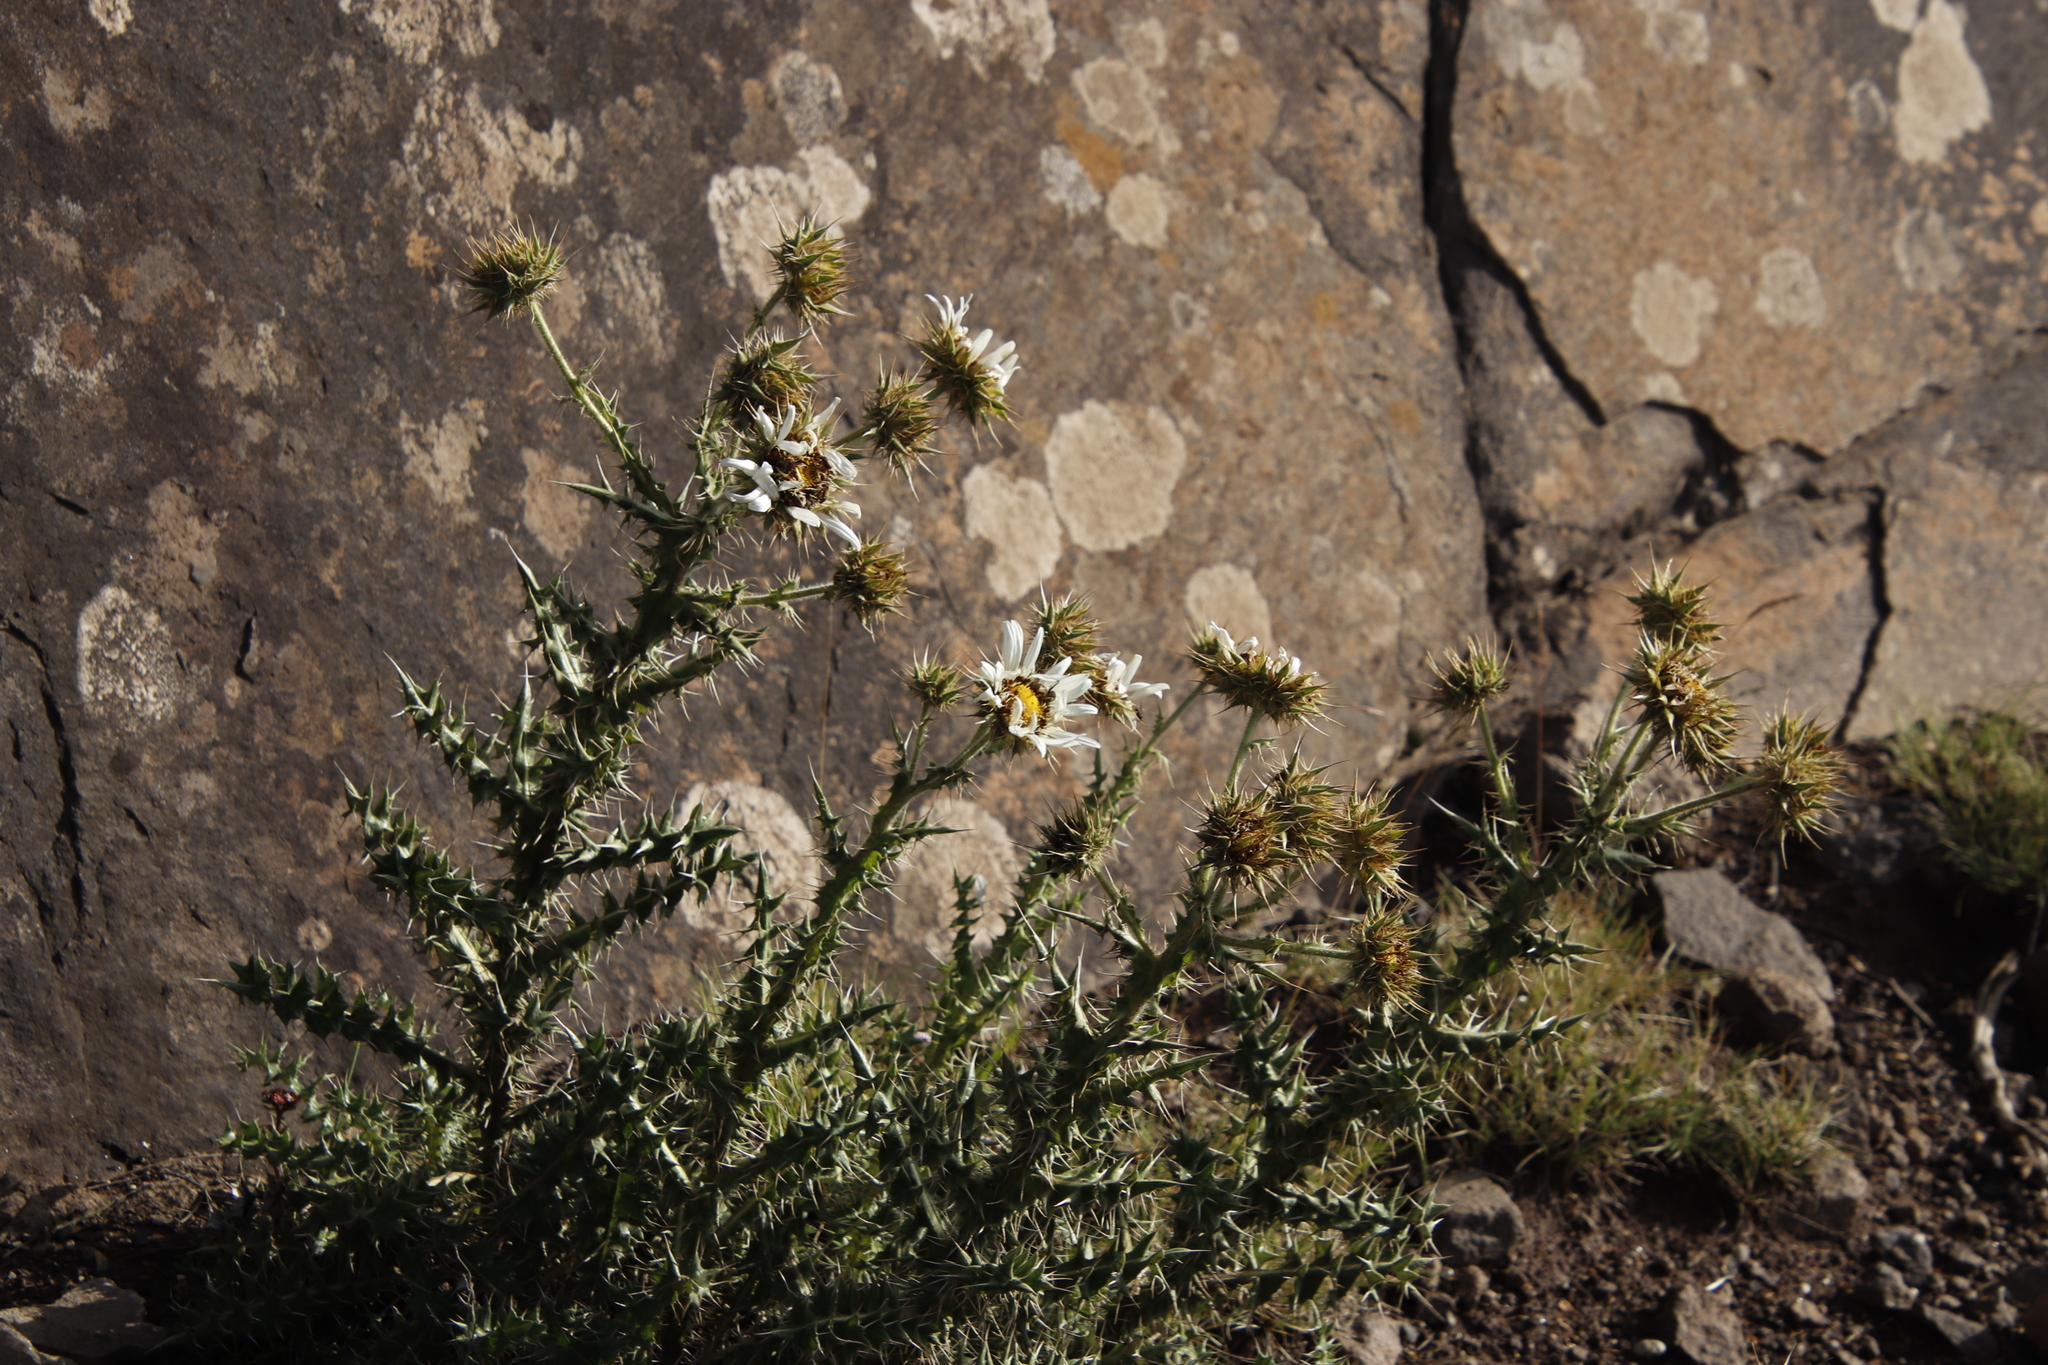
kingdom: Plantae
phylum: Tracheophyta
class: Magnoliopsida
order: Asterales
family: Asteraceae
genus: Berkheya
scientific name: Berkheya cirsiifolia
